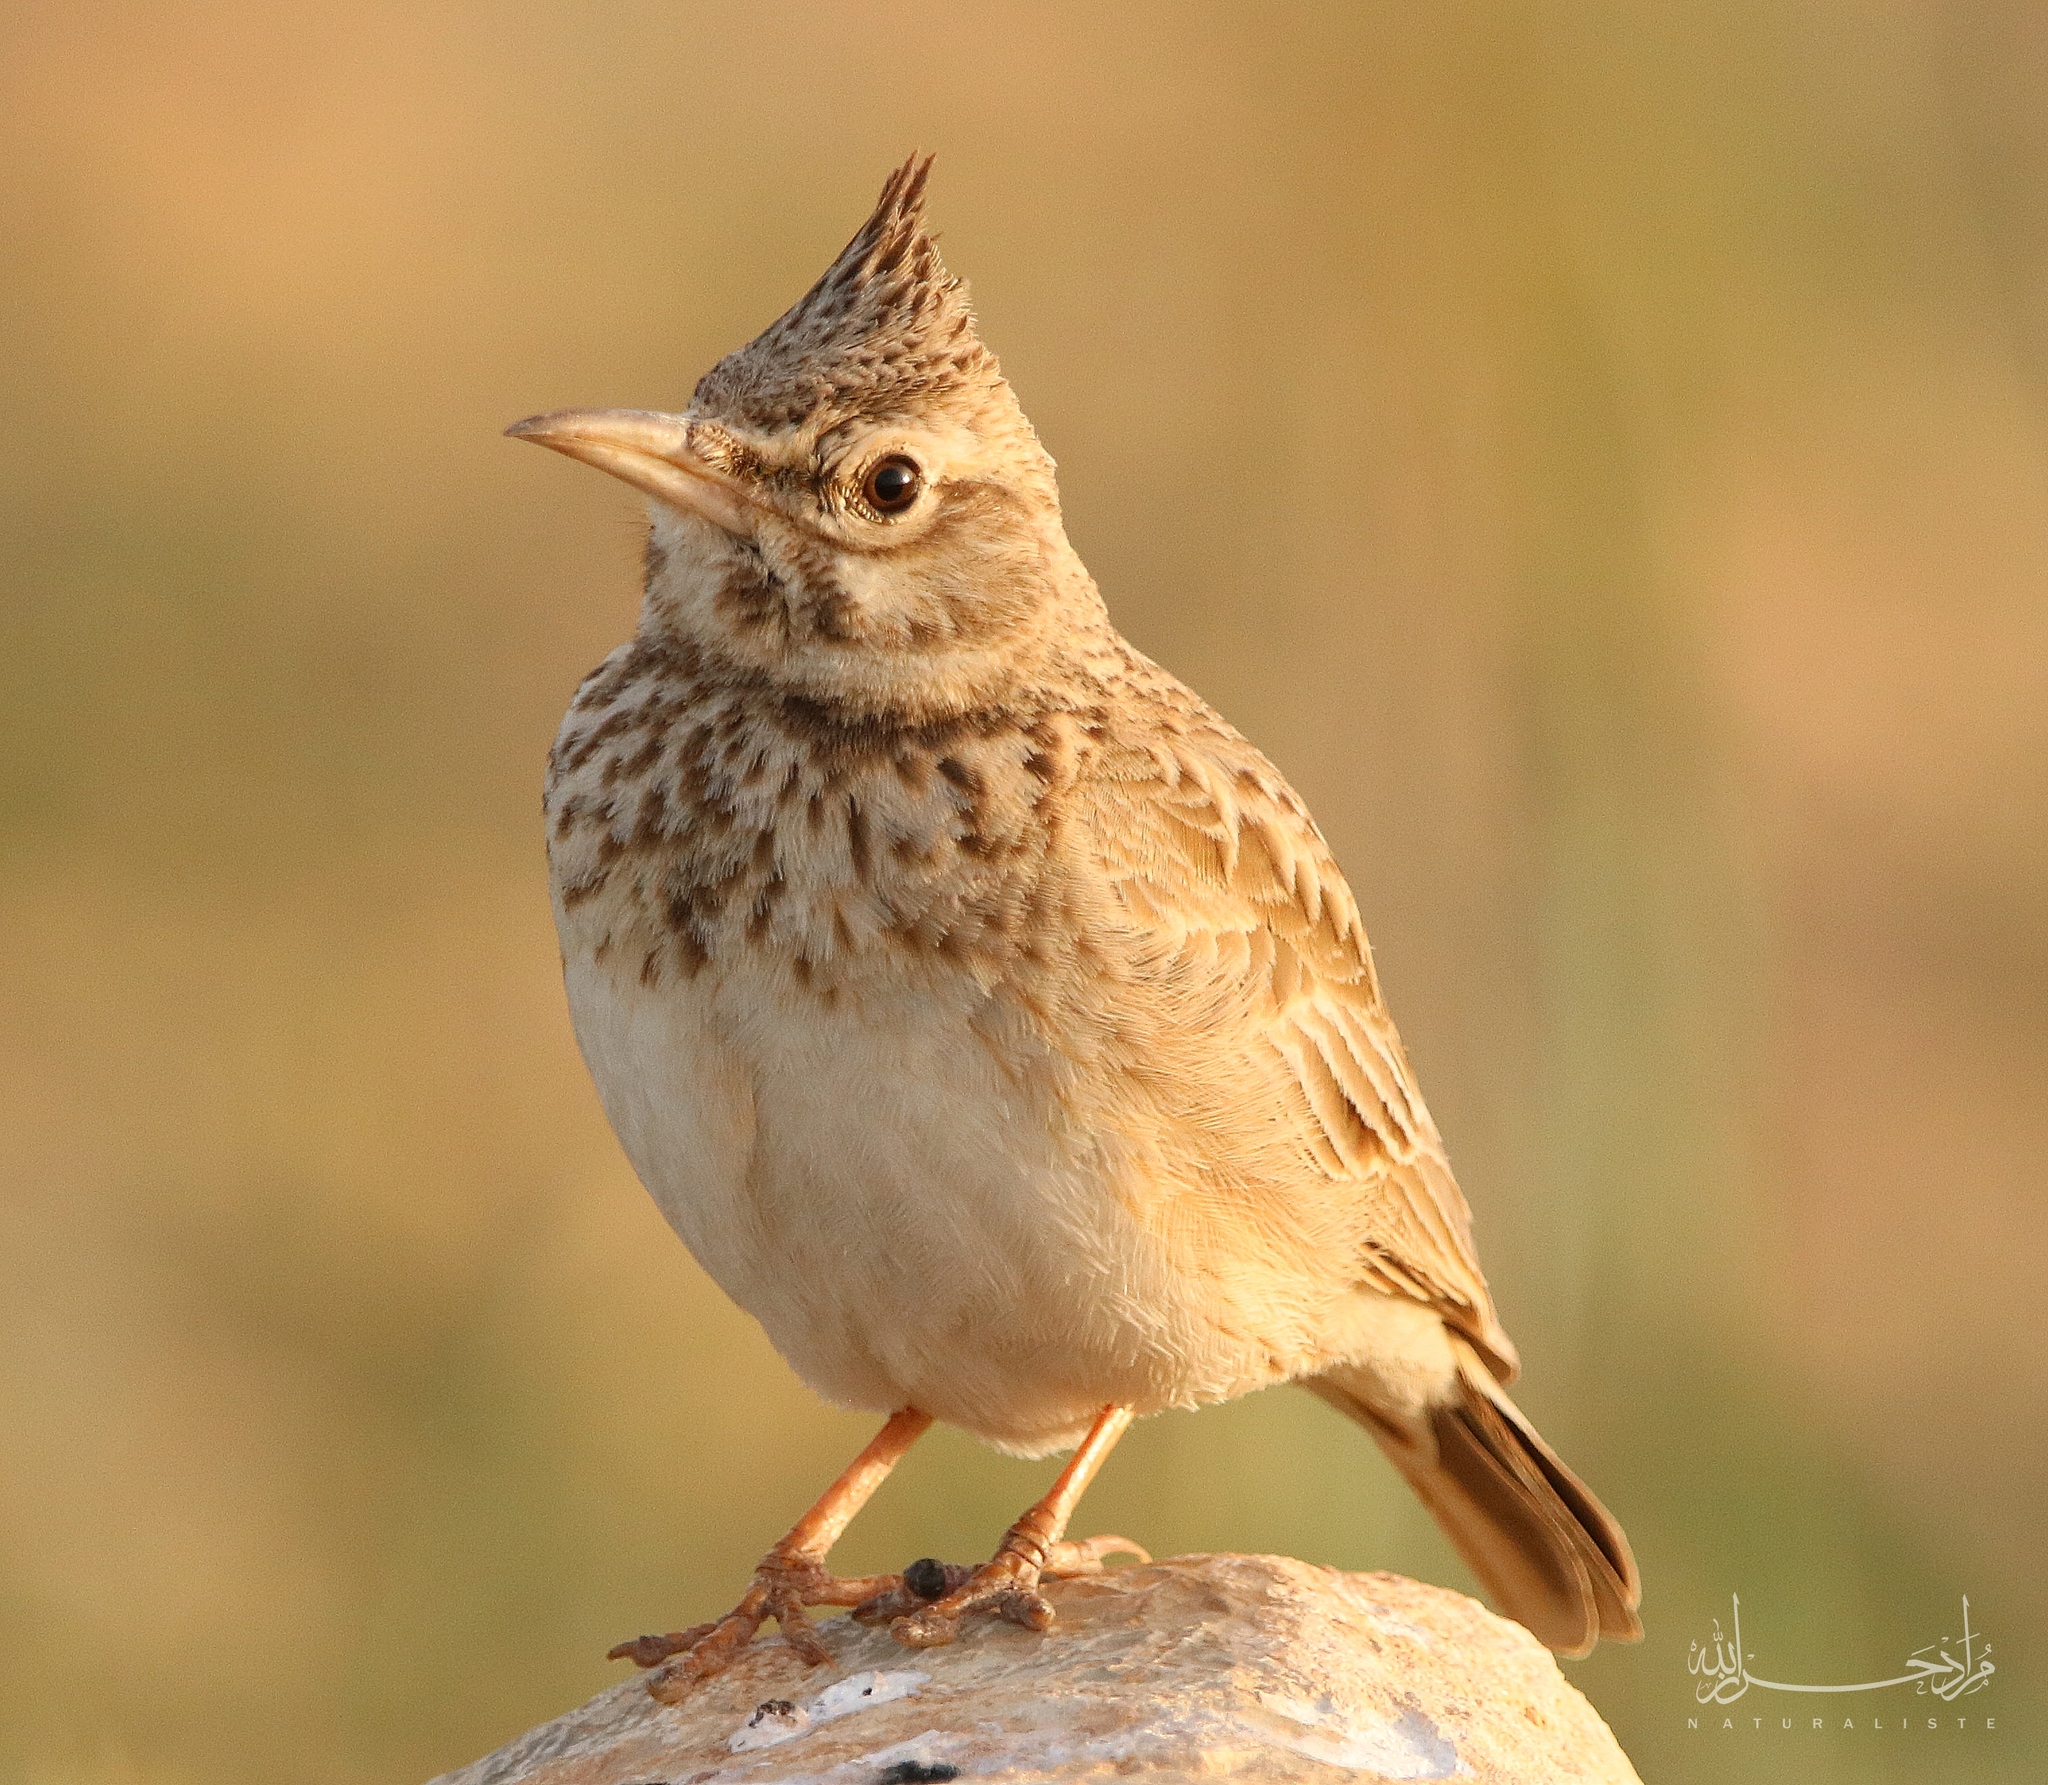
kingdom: Animalia
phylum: Chordata
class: Aves
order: Passeriformes
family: Alaudidae
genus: Galerida
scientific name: Galerida cristata
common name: Crested lark
